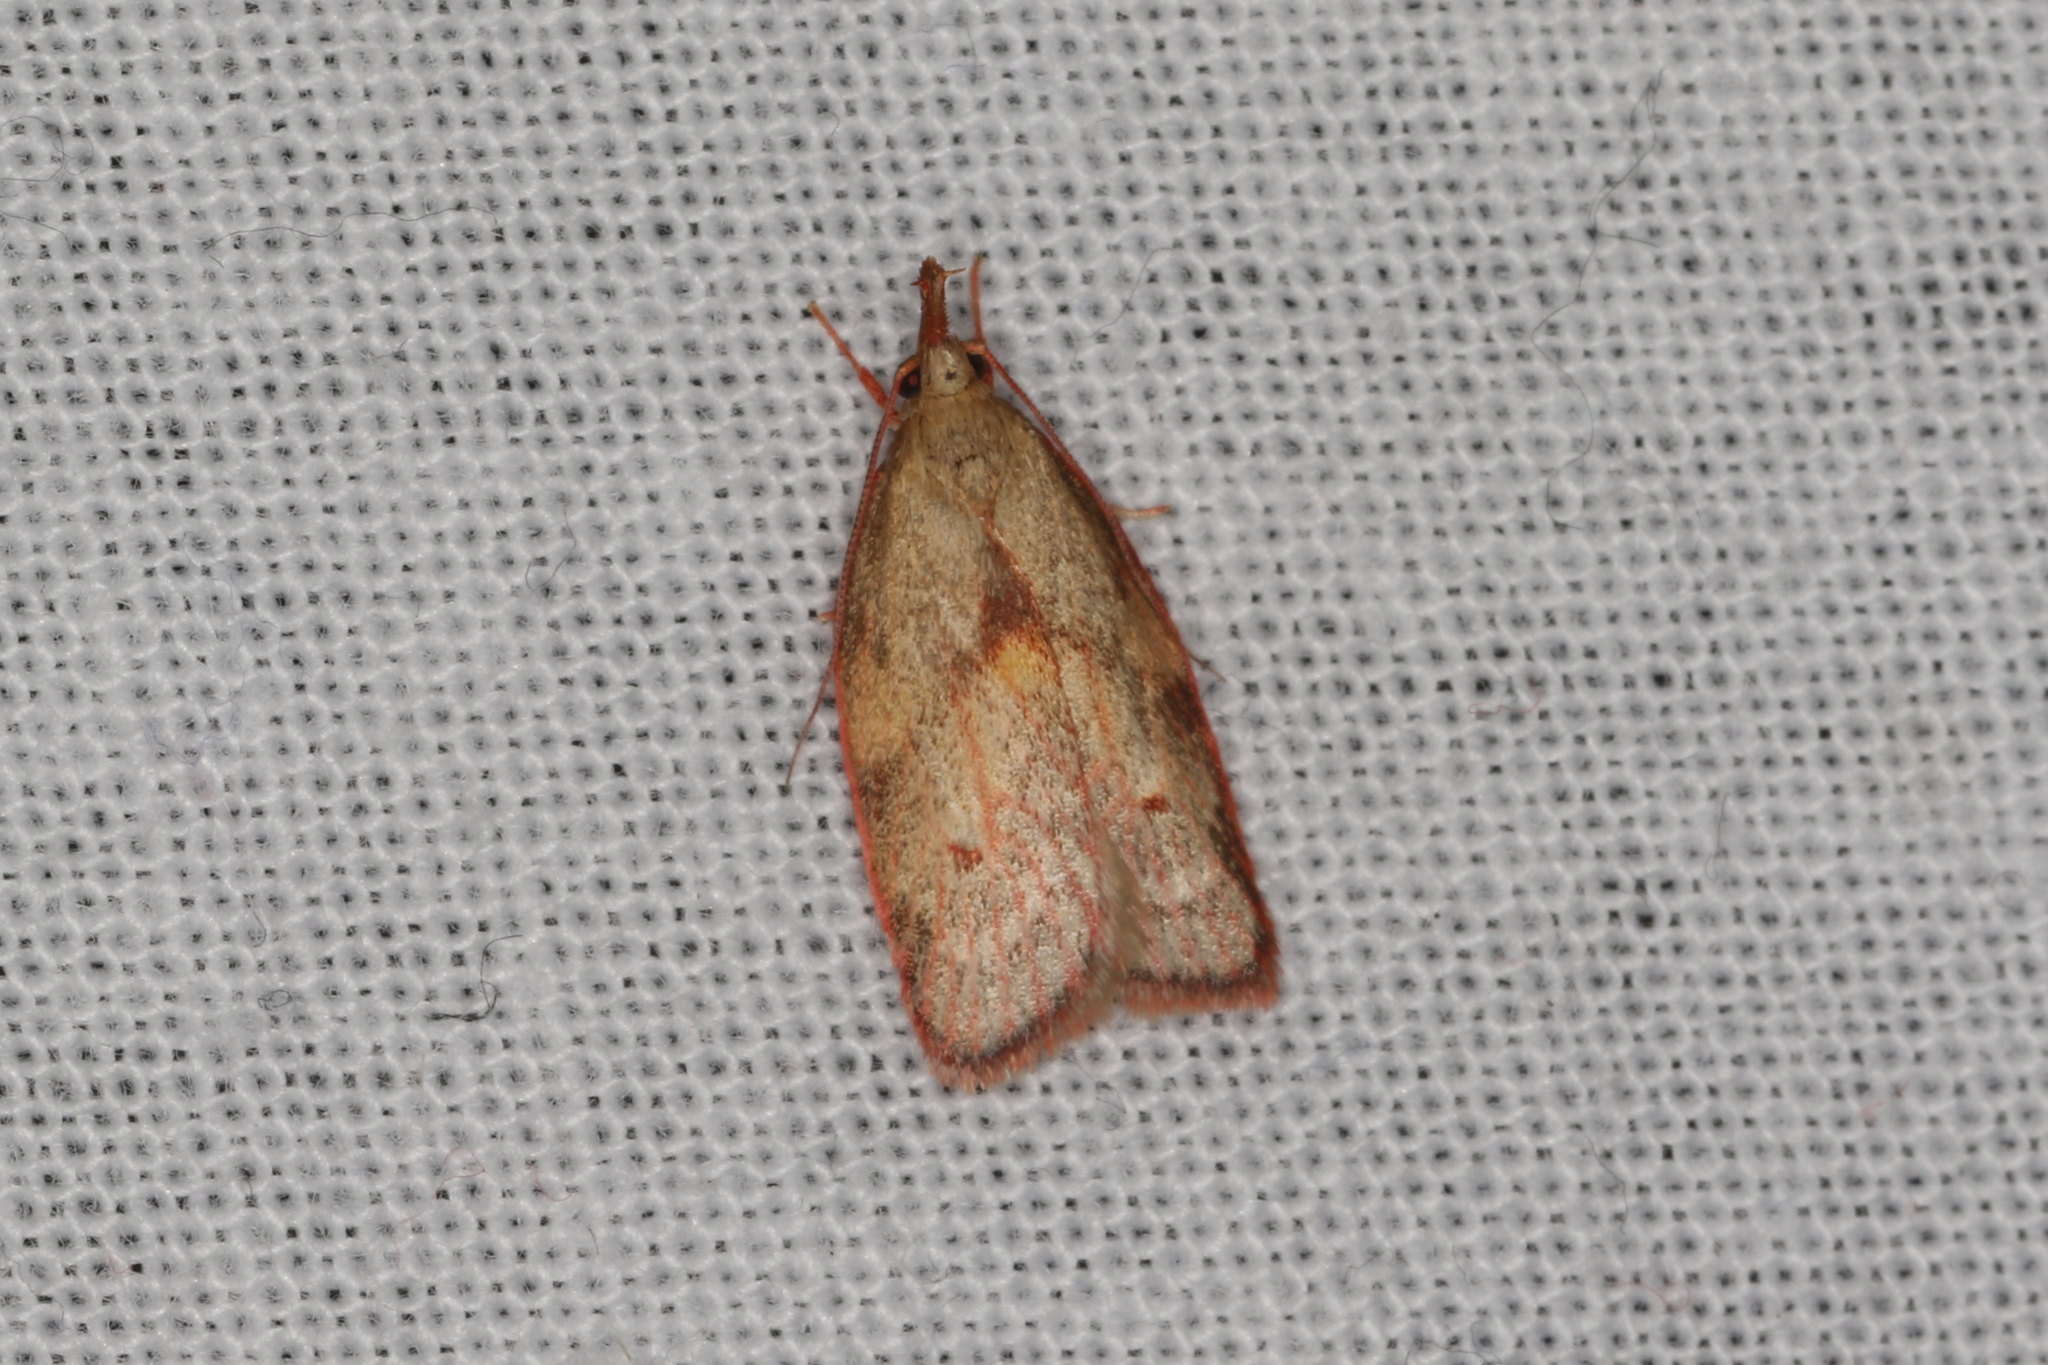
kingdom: Animalia
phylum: Arthropoda
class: Insecta
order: Lepidoptera
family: Depressariidae
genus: Enchocrates
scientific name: Enchocrates glaucopis
